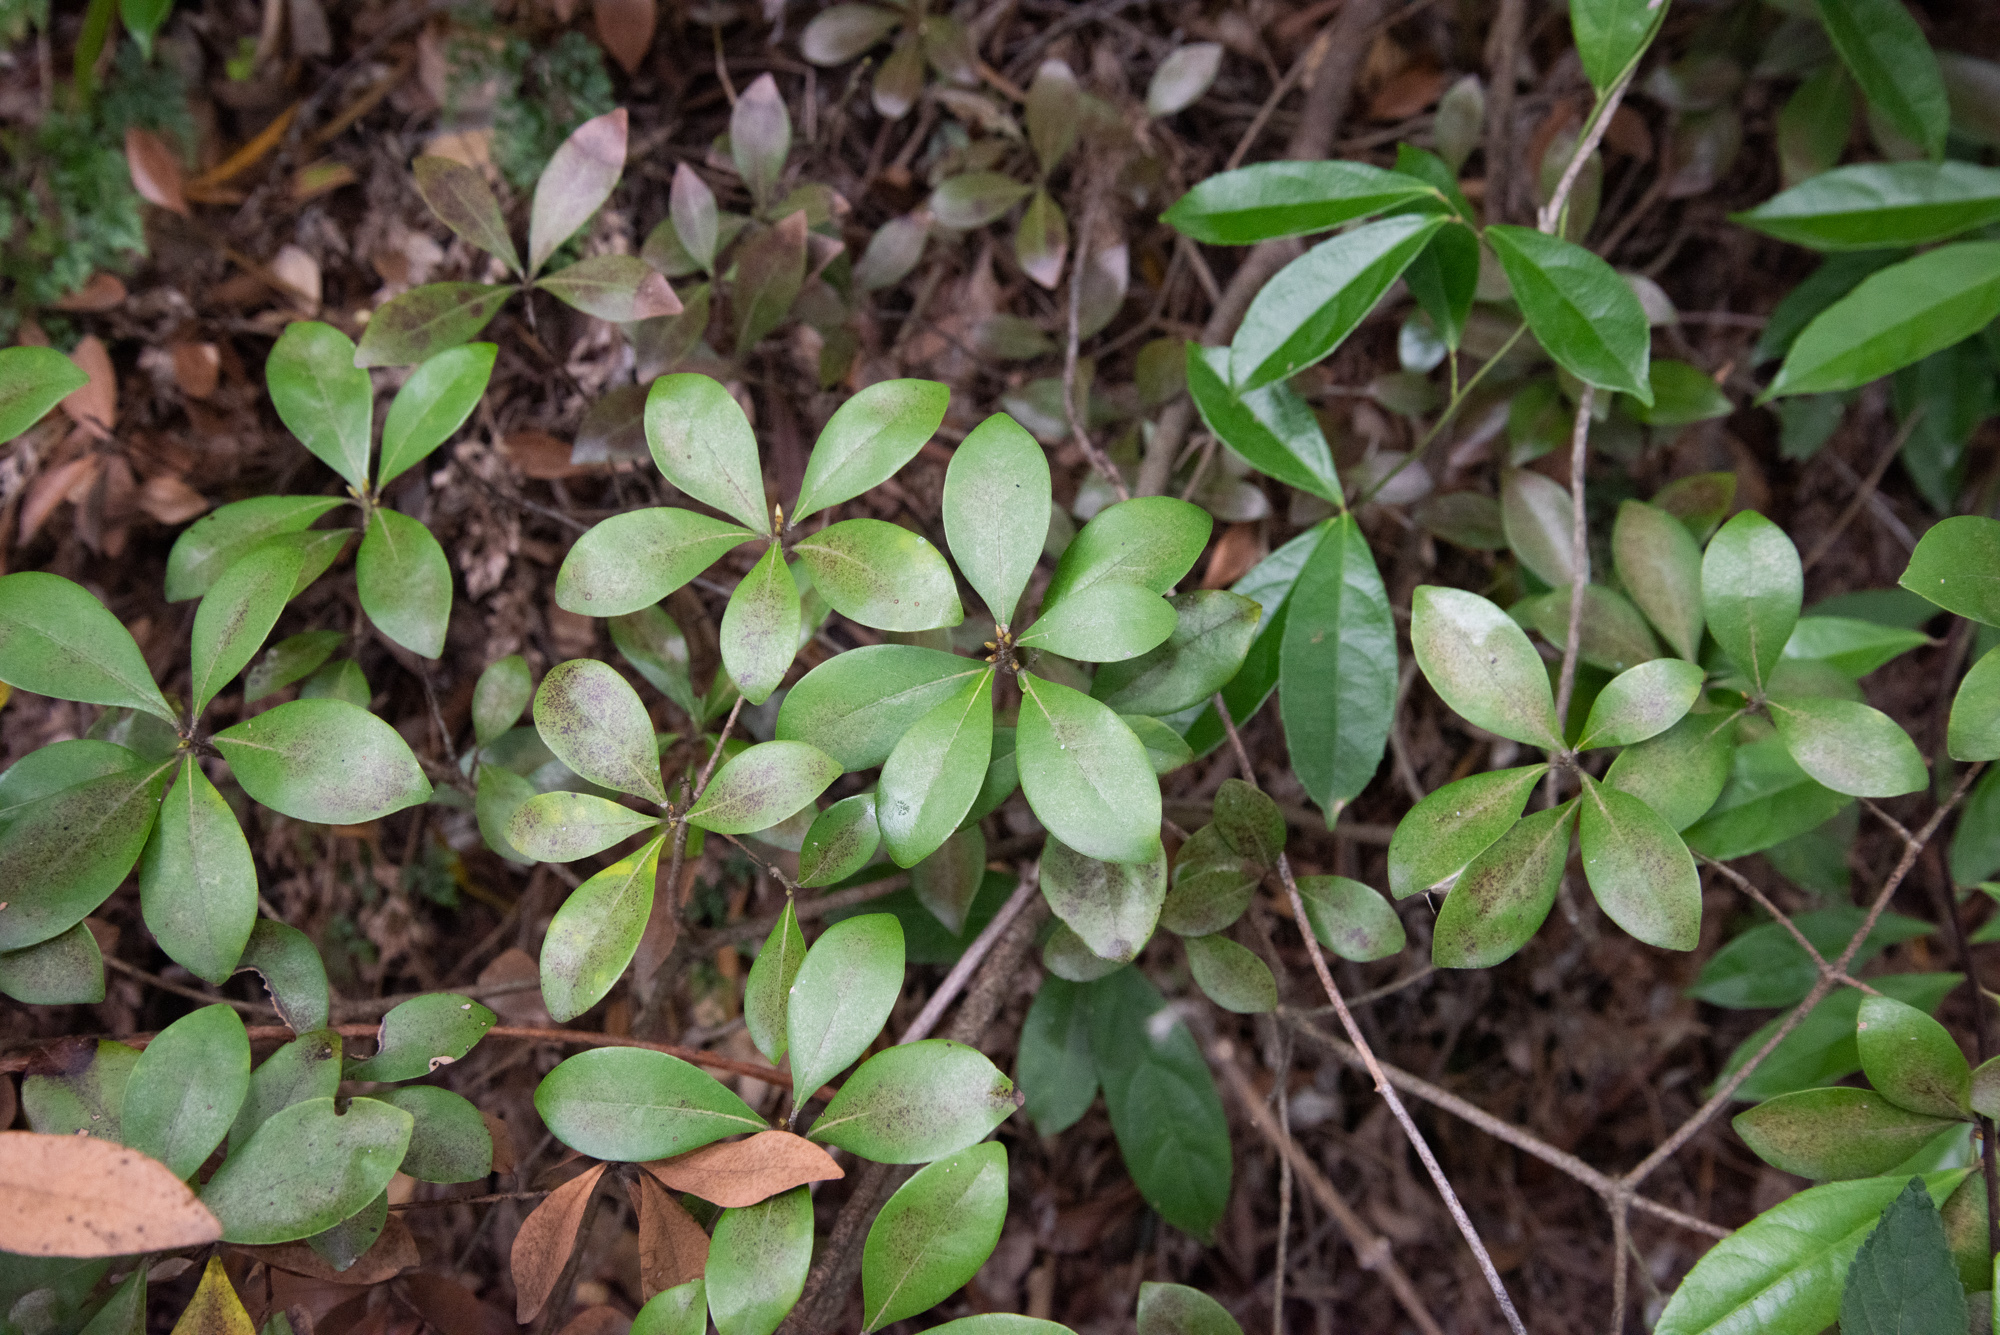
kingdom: Plantae
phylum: Tracheophyta
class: Magnoliopsida
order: Laurales
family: Lauraceae
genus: Litsea
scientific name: Litsea rotundifolia
